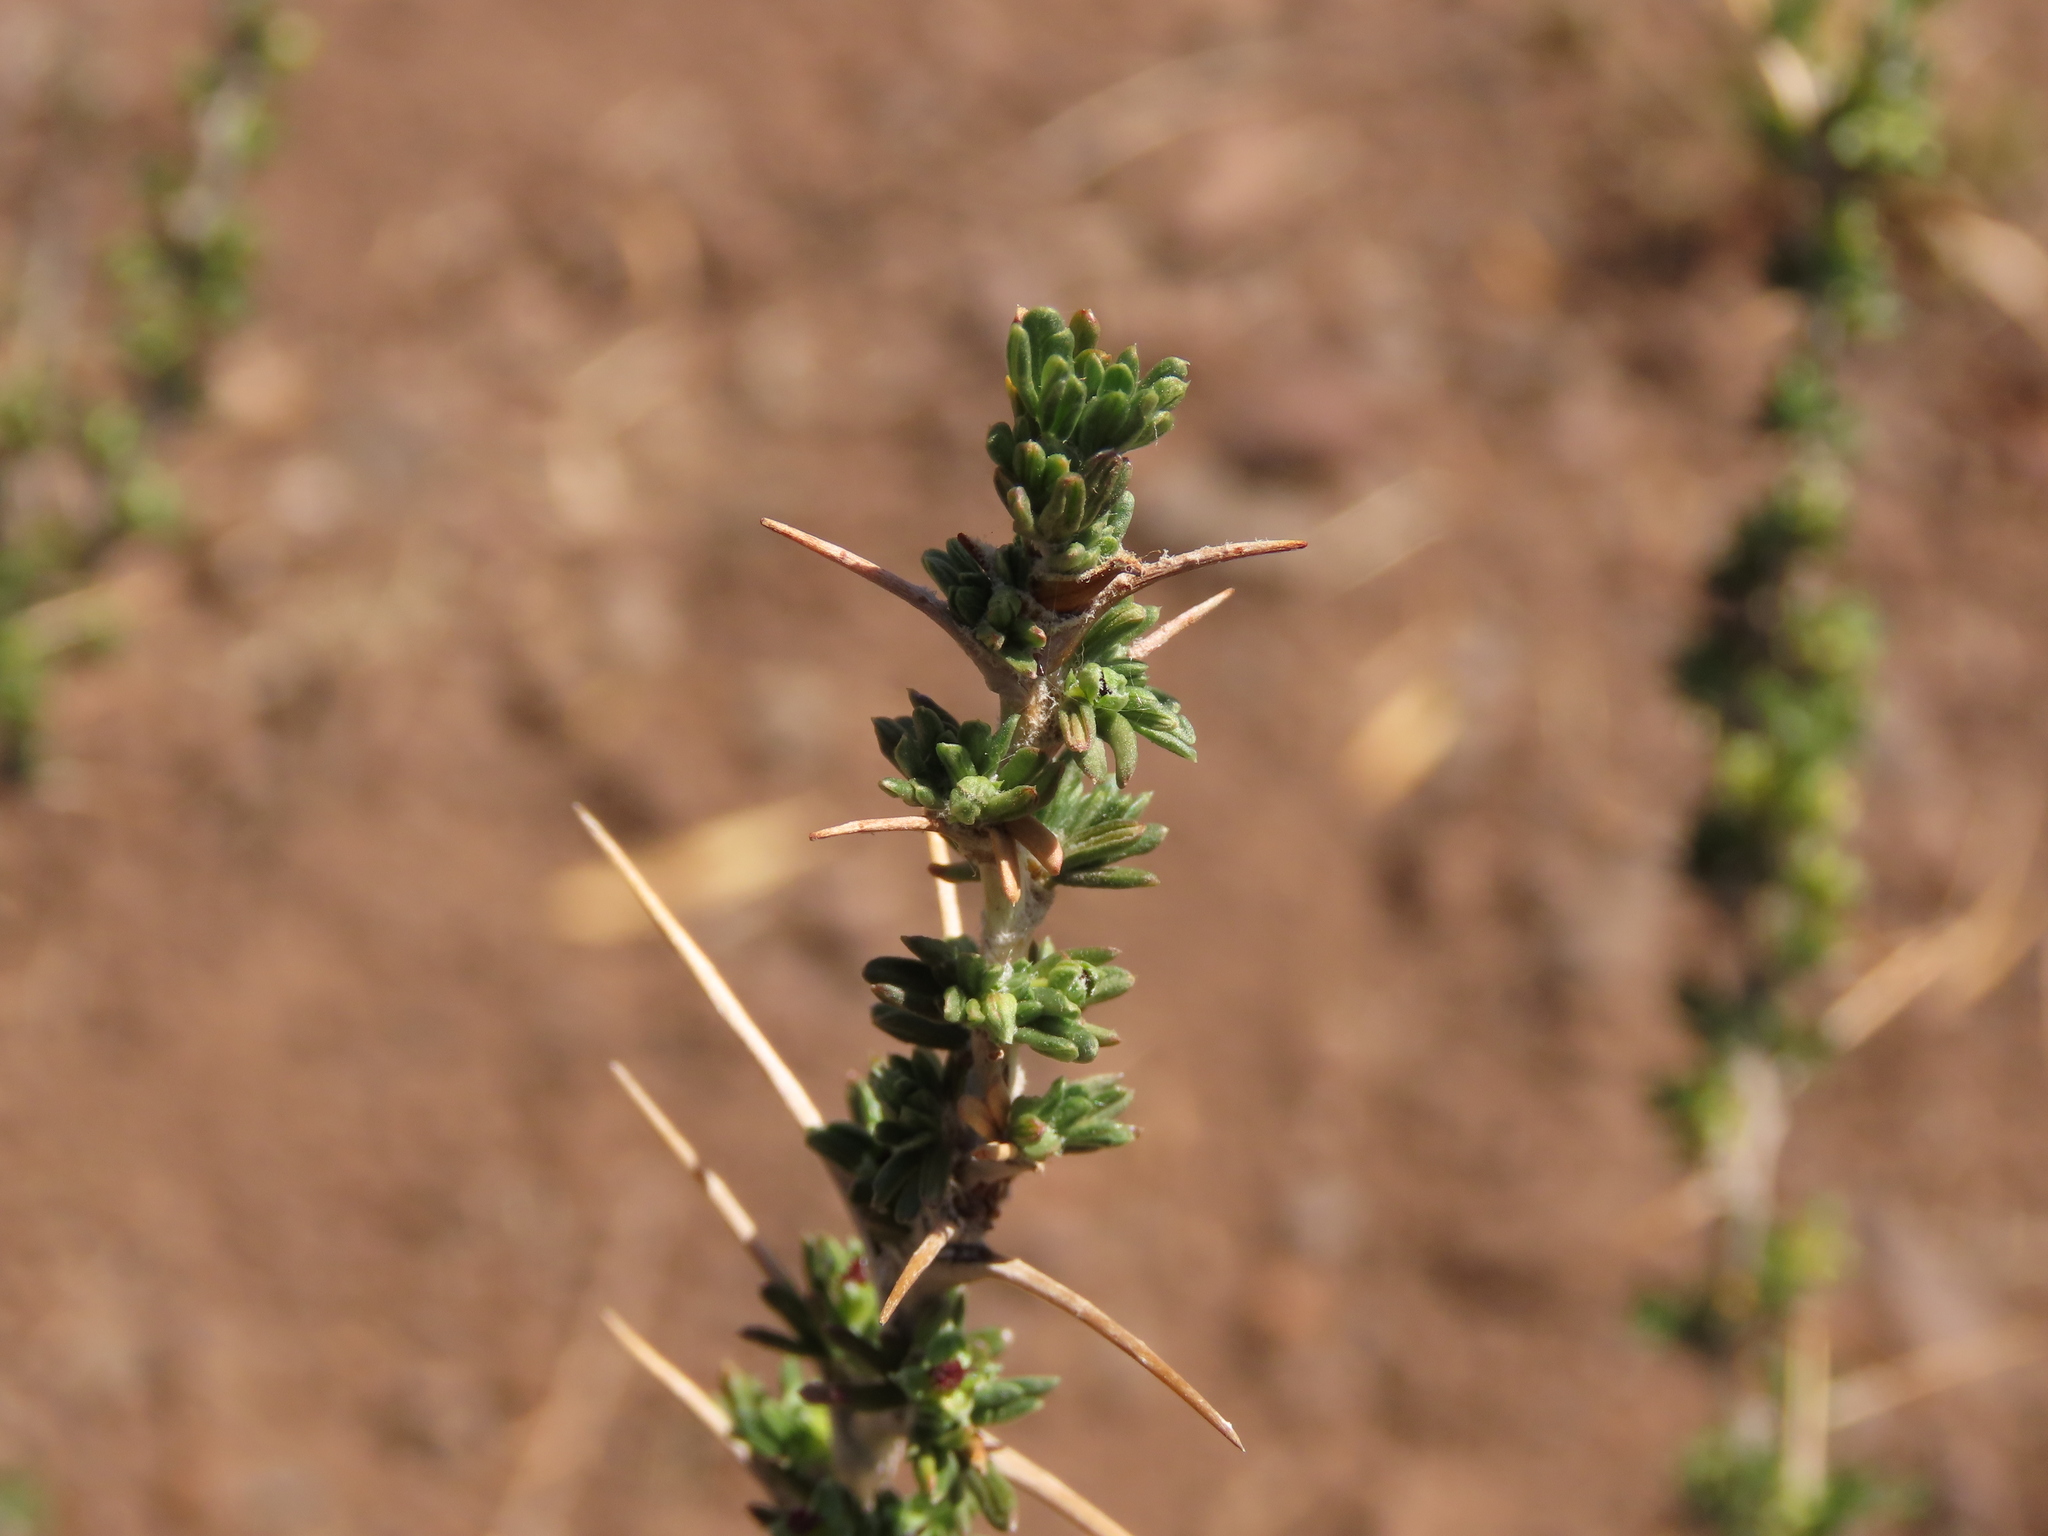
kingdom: Plantae
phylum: Tracheophyta
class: Magnoliopsida
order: Rosales
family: Rosaceae
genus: Margyricarpus
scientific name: Margyricarpus alatus
